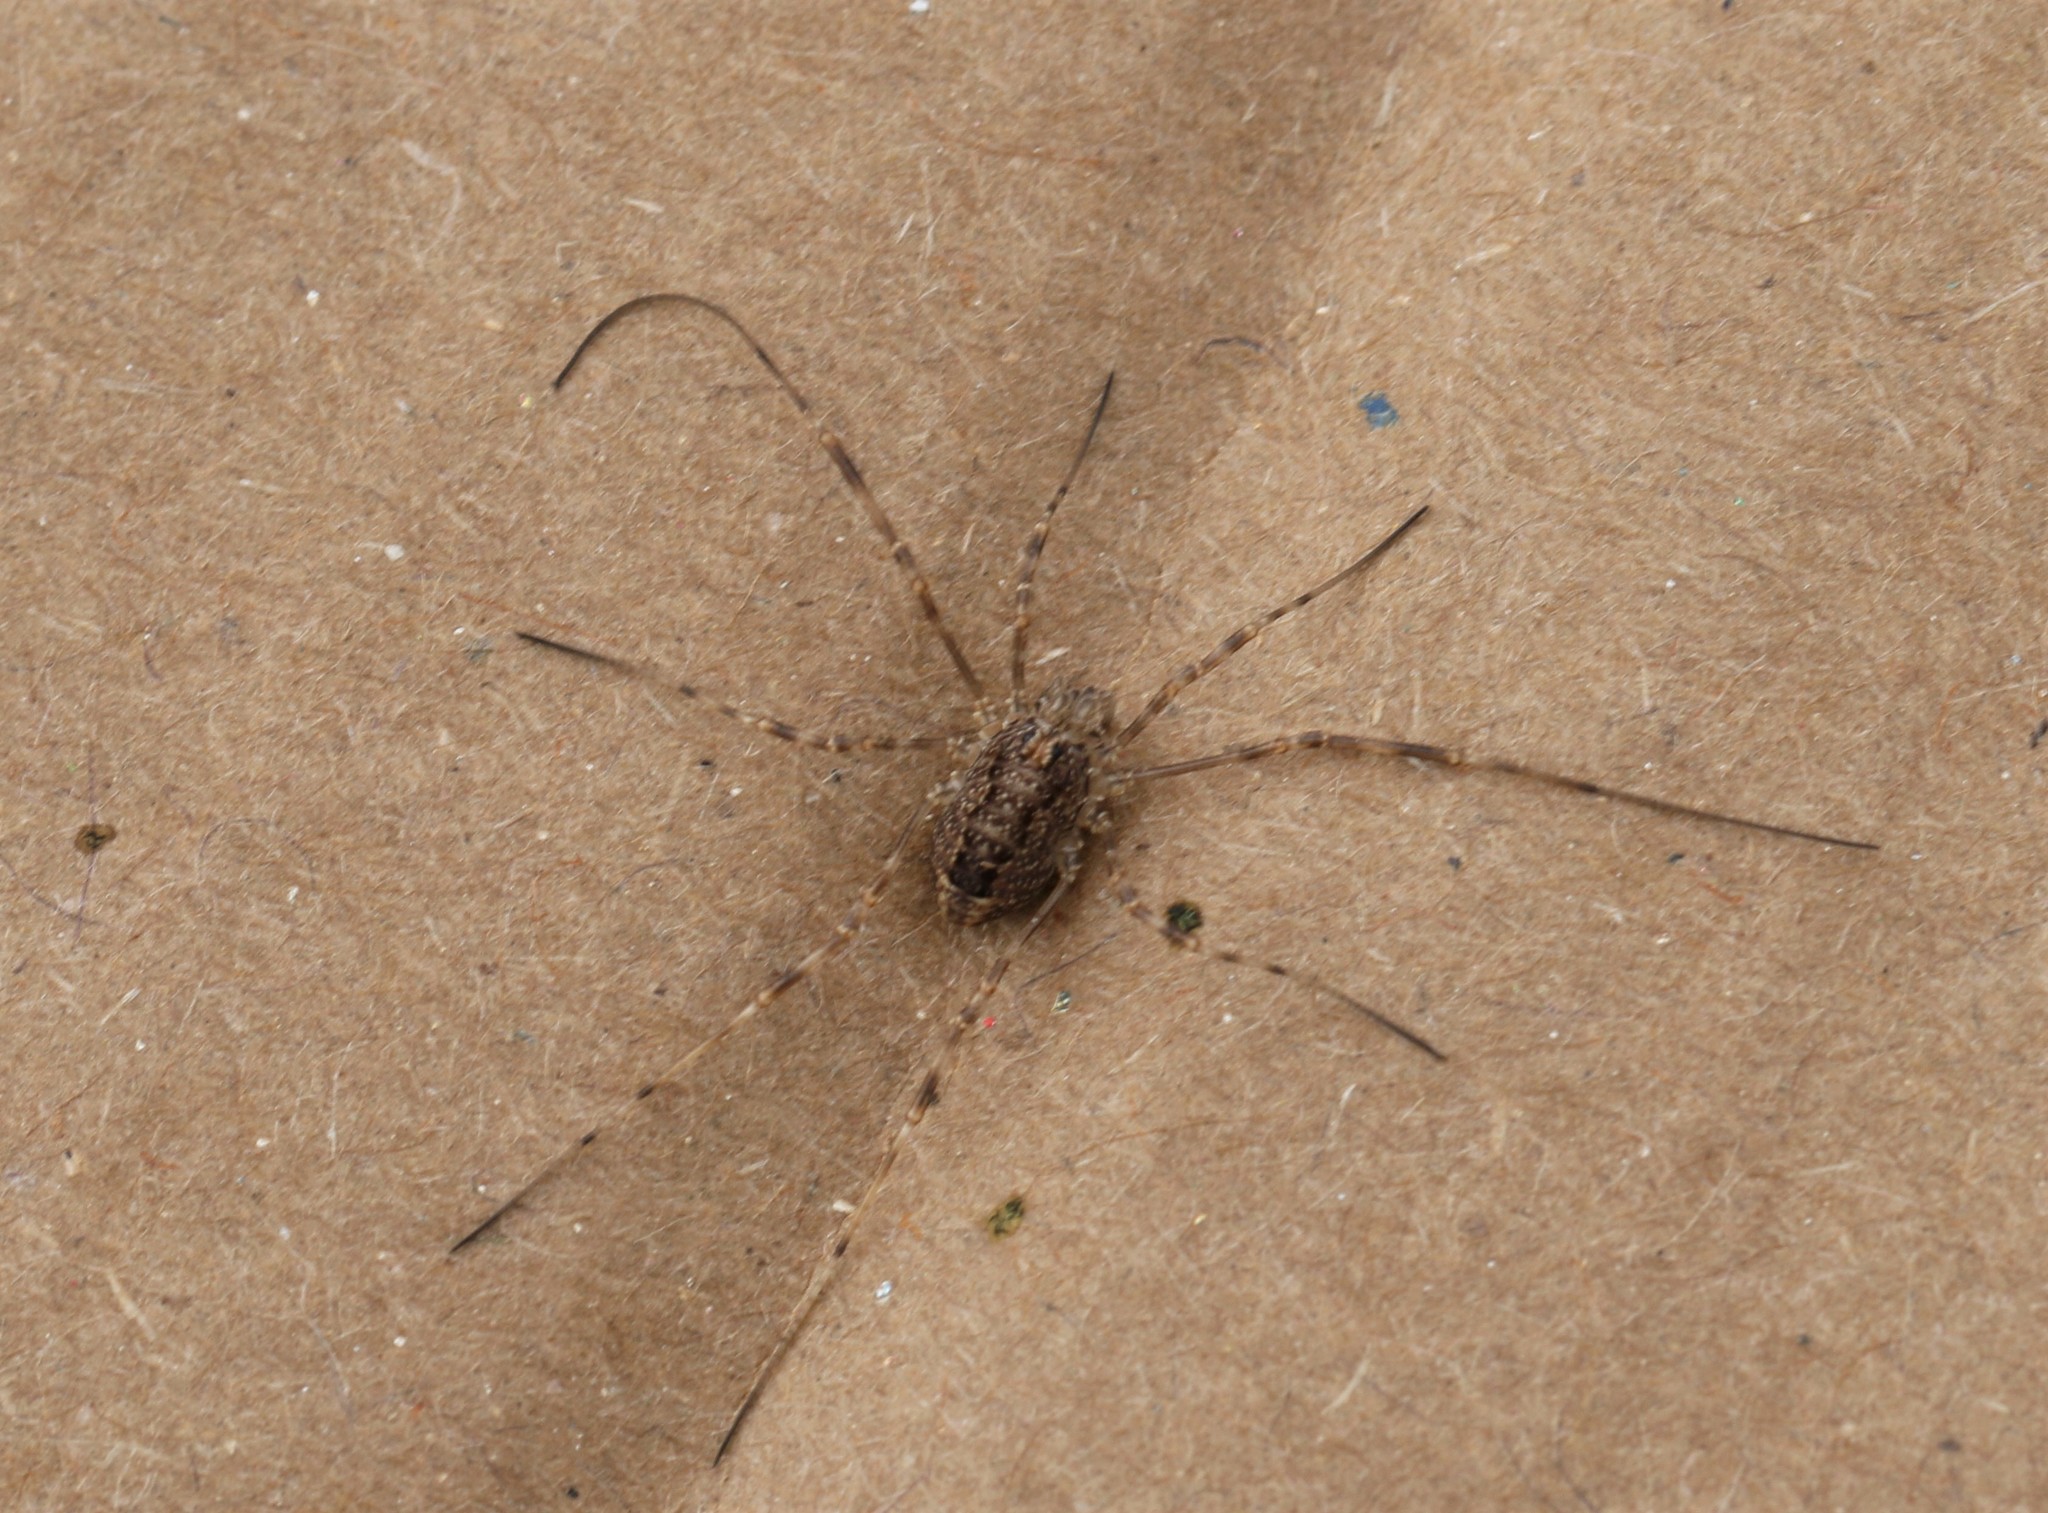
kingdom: Animalia
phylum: Arthropoda
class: Arachnida
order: Opiliones
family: Phalangiidae
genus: Rilaena
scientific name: Rilaena triangularis
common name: Spring harvestman
